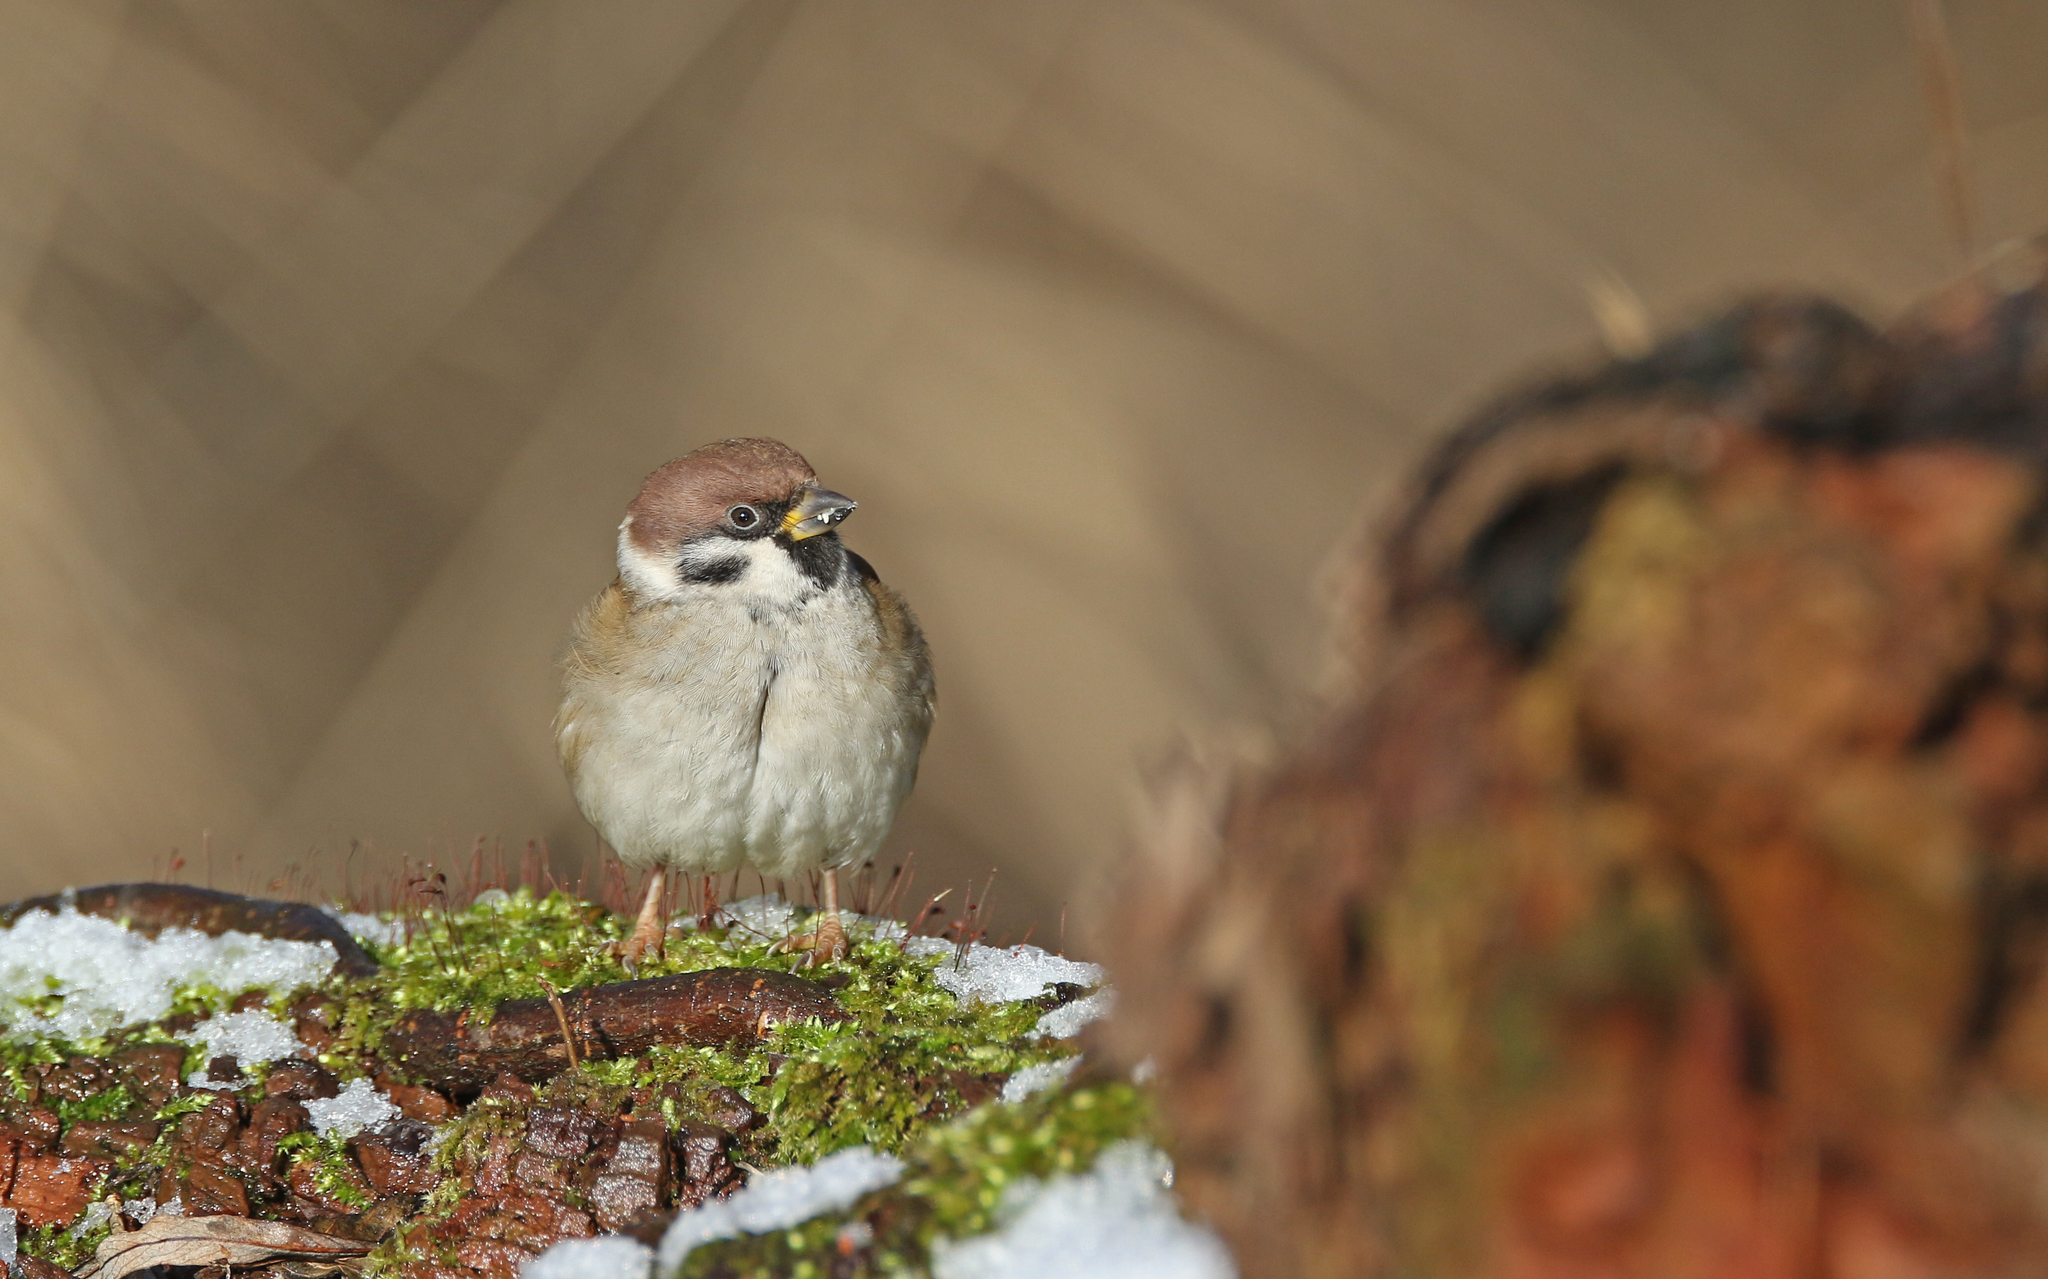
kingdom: Animalia
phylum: Chordata
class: Aves
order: Passeriformes
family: Passeridae
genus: Passer
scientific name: Passer montanus
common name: Eurasian tree sparrow
